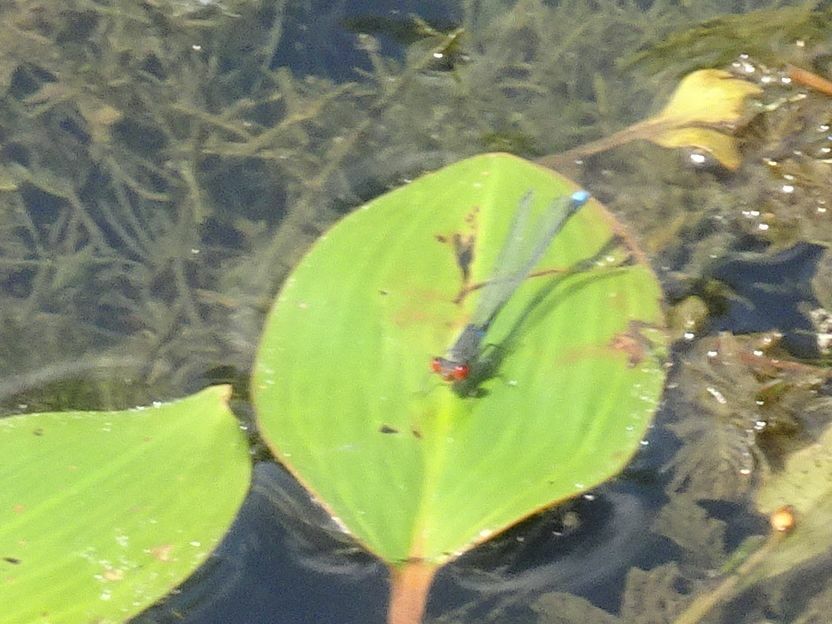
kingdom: Animalia
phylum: Arthropoda
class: Insecta
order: Odonata
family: Coenagrionidae
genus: Erythromma
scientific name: Erythromma viridulum
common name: Small red-eyed damselfly
